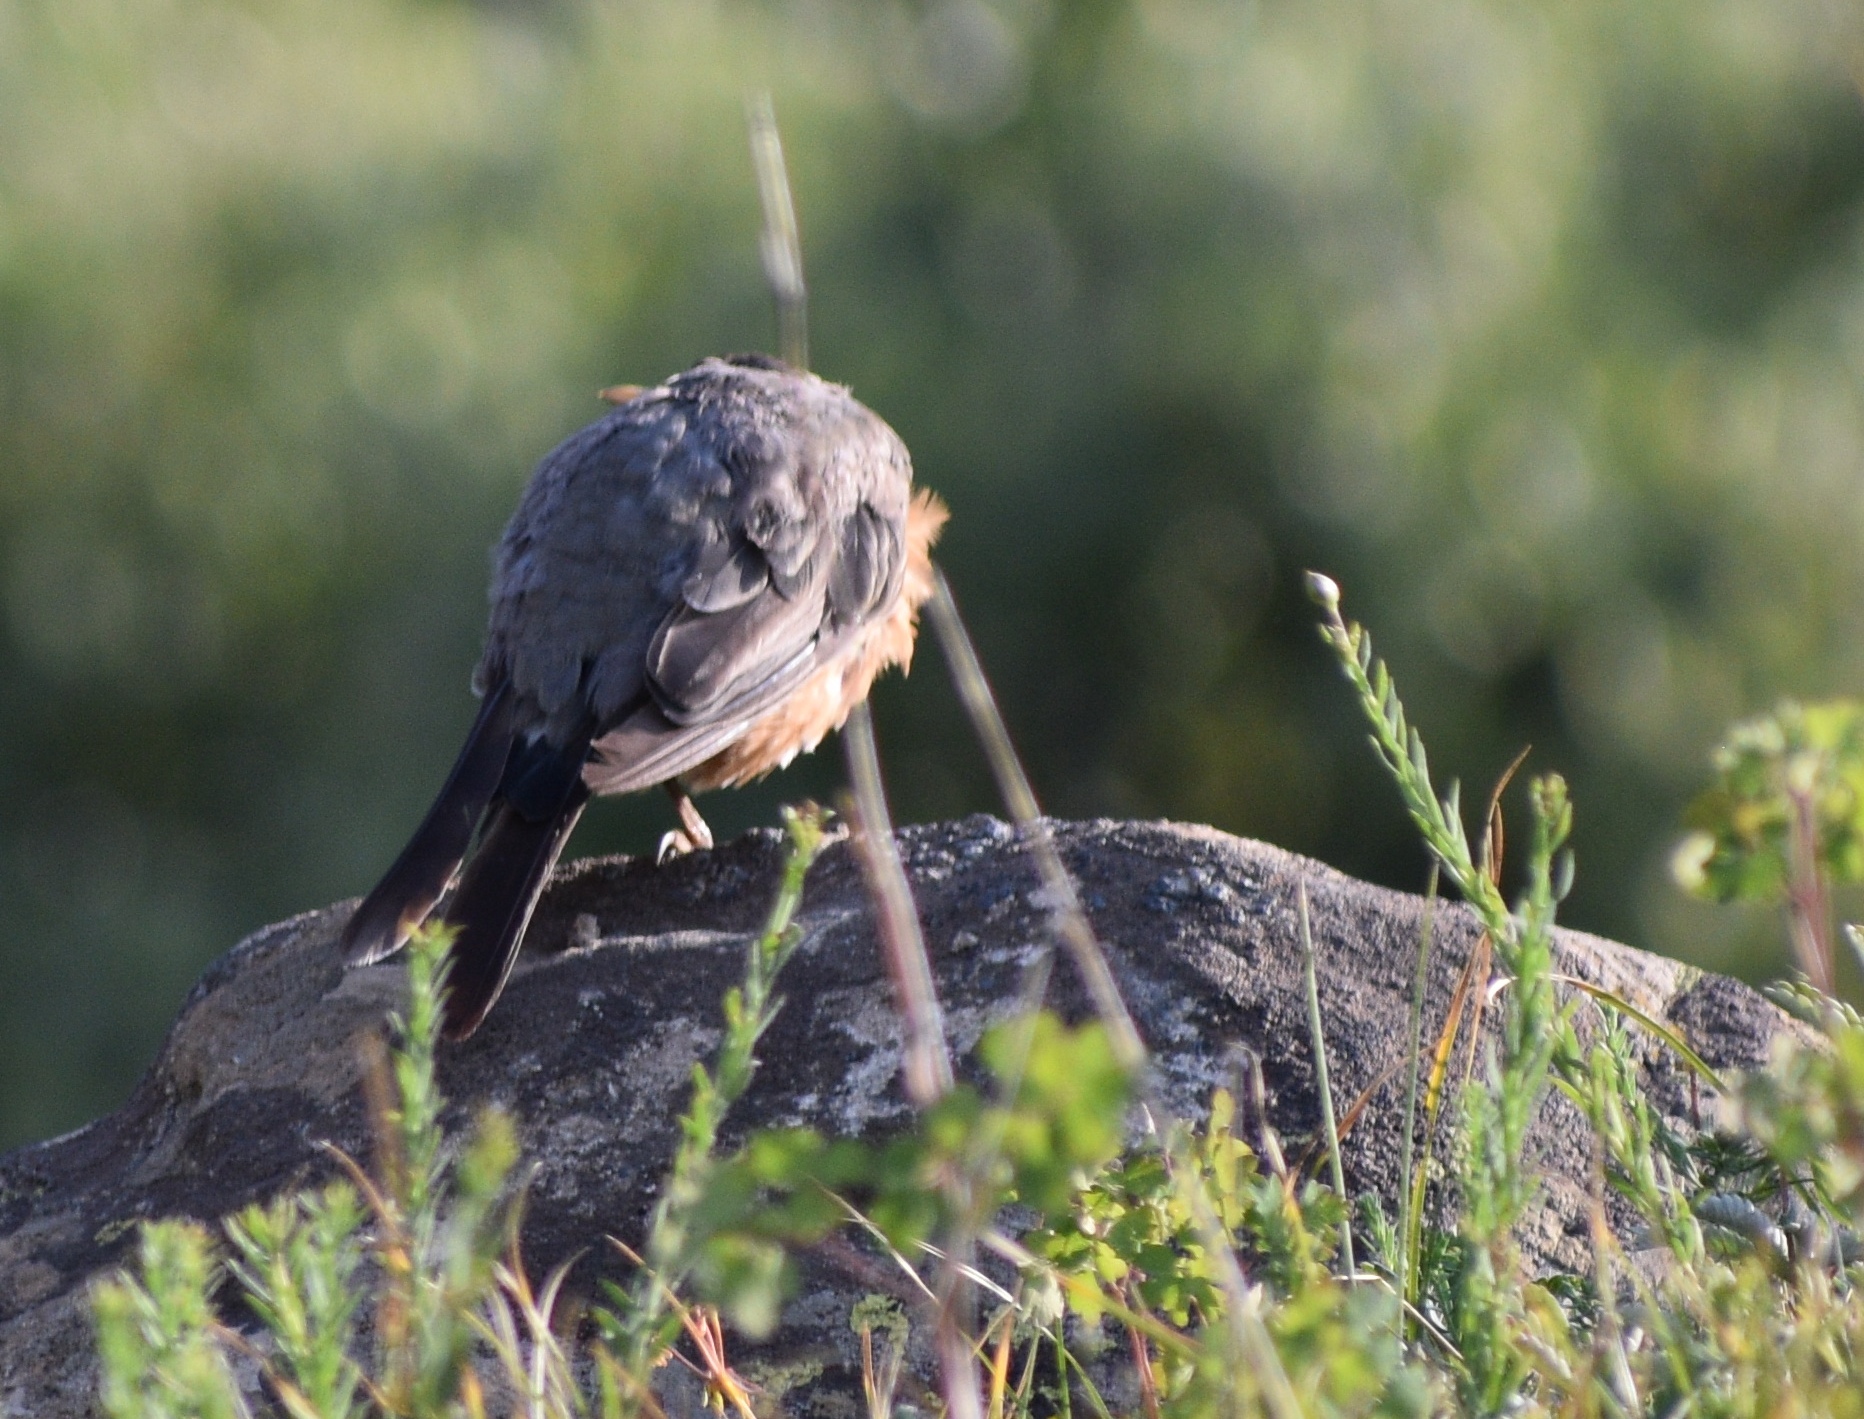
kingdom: Animalia
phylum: Chordata
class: Aves
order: Passeriformes
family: Turdidae
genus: Turdus
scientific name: Turdus migratorius
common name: American robin
